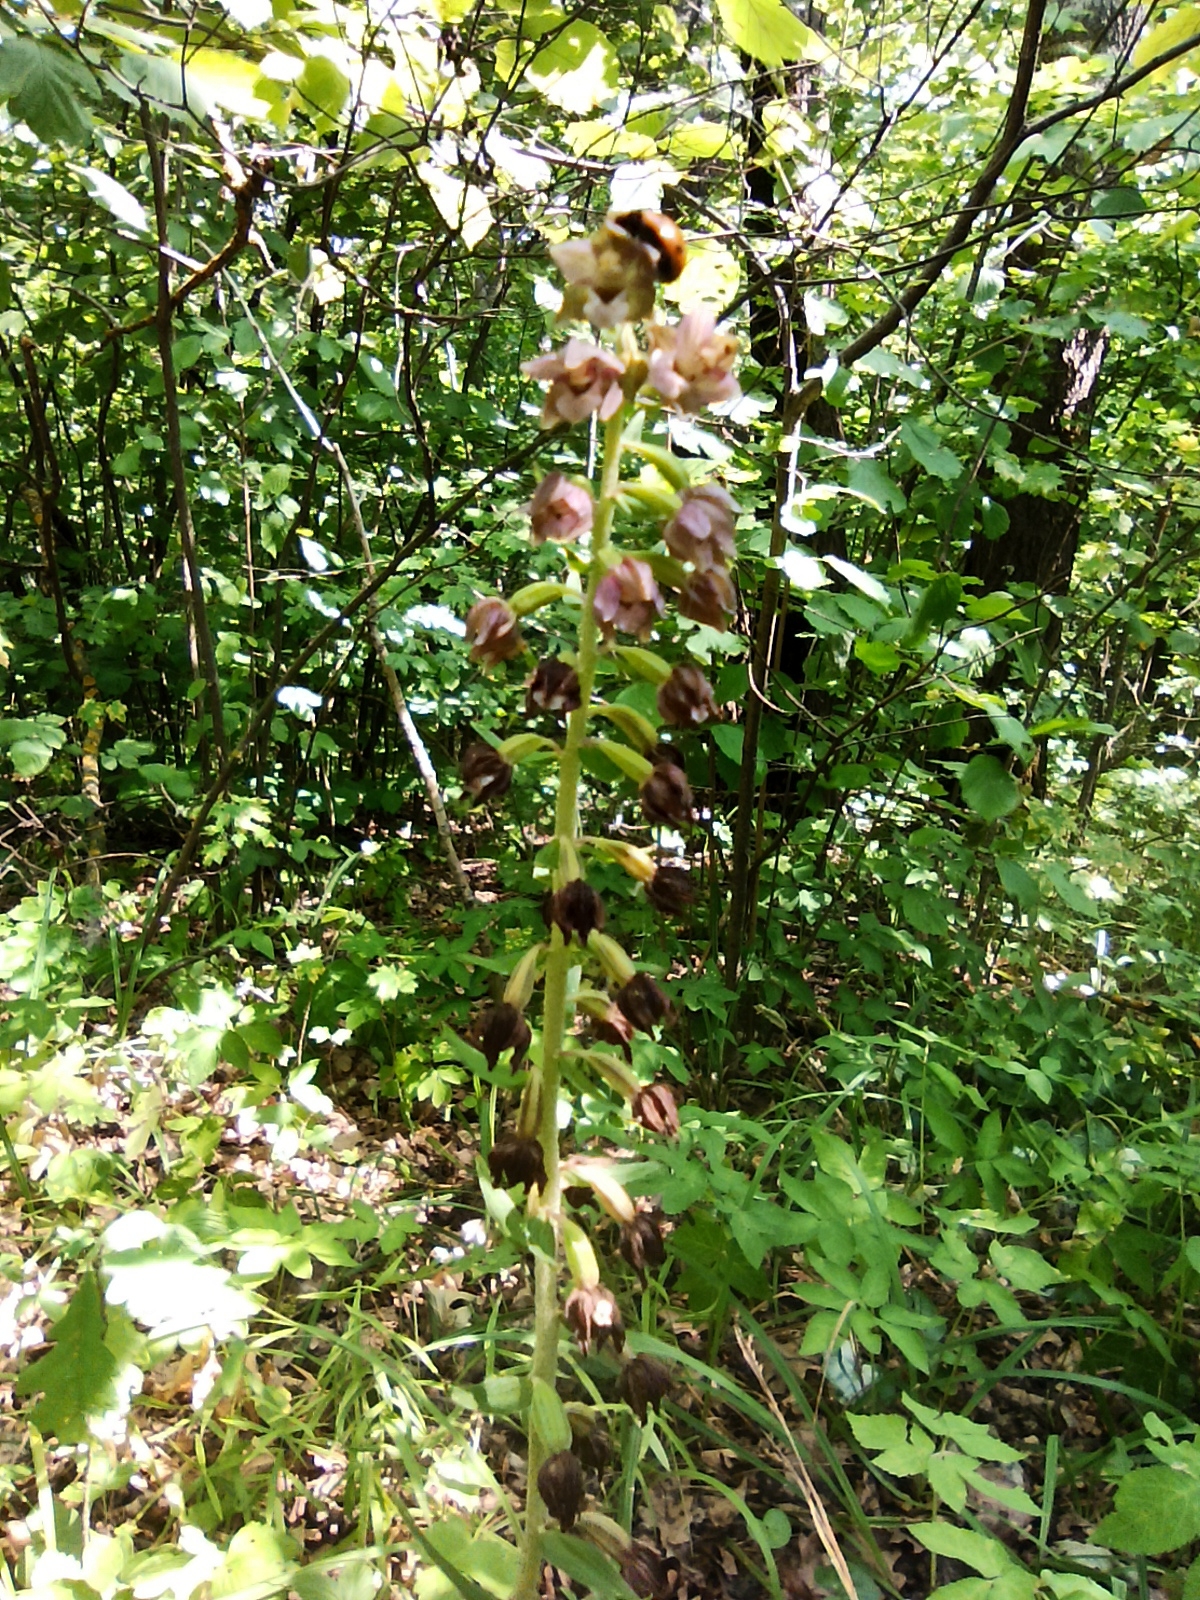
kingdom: Plantae
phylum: Tracheophyta
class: Liliopsida
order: Asparagales
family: Orchidaceae
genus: Epipactis
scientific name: Epipactis helleborine
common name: Broad-leaved helleborine
